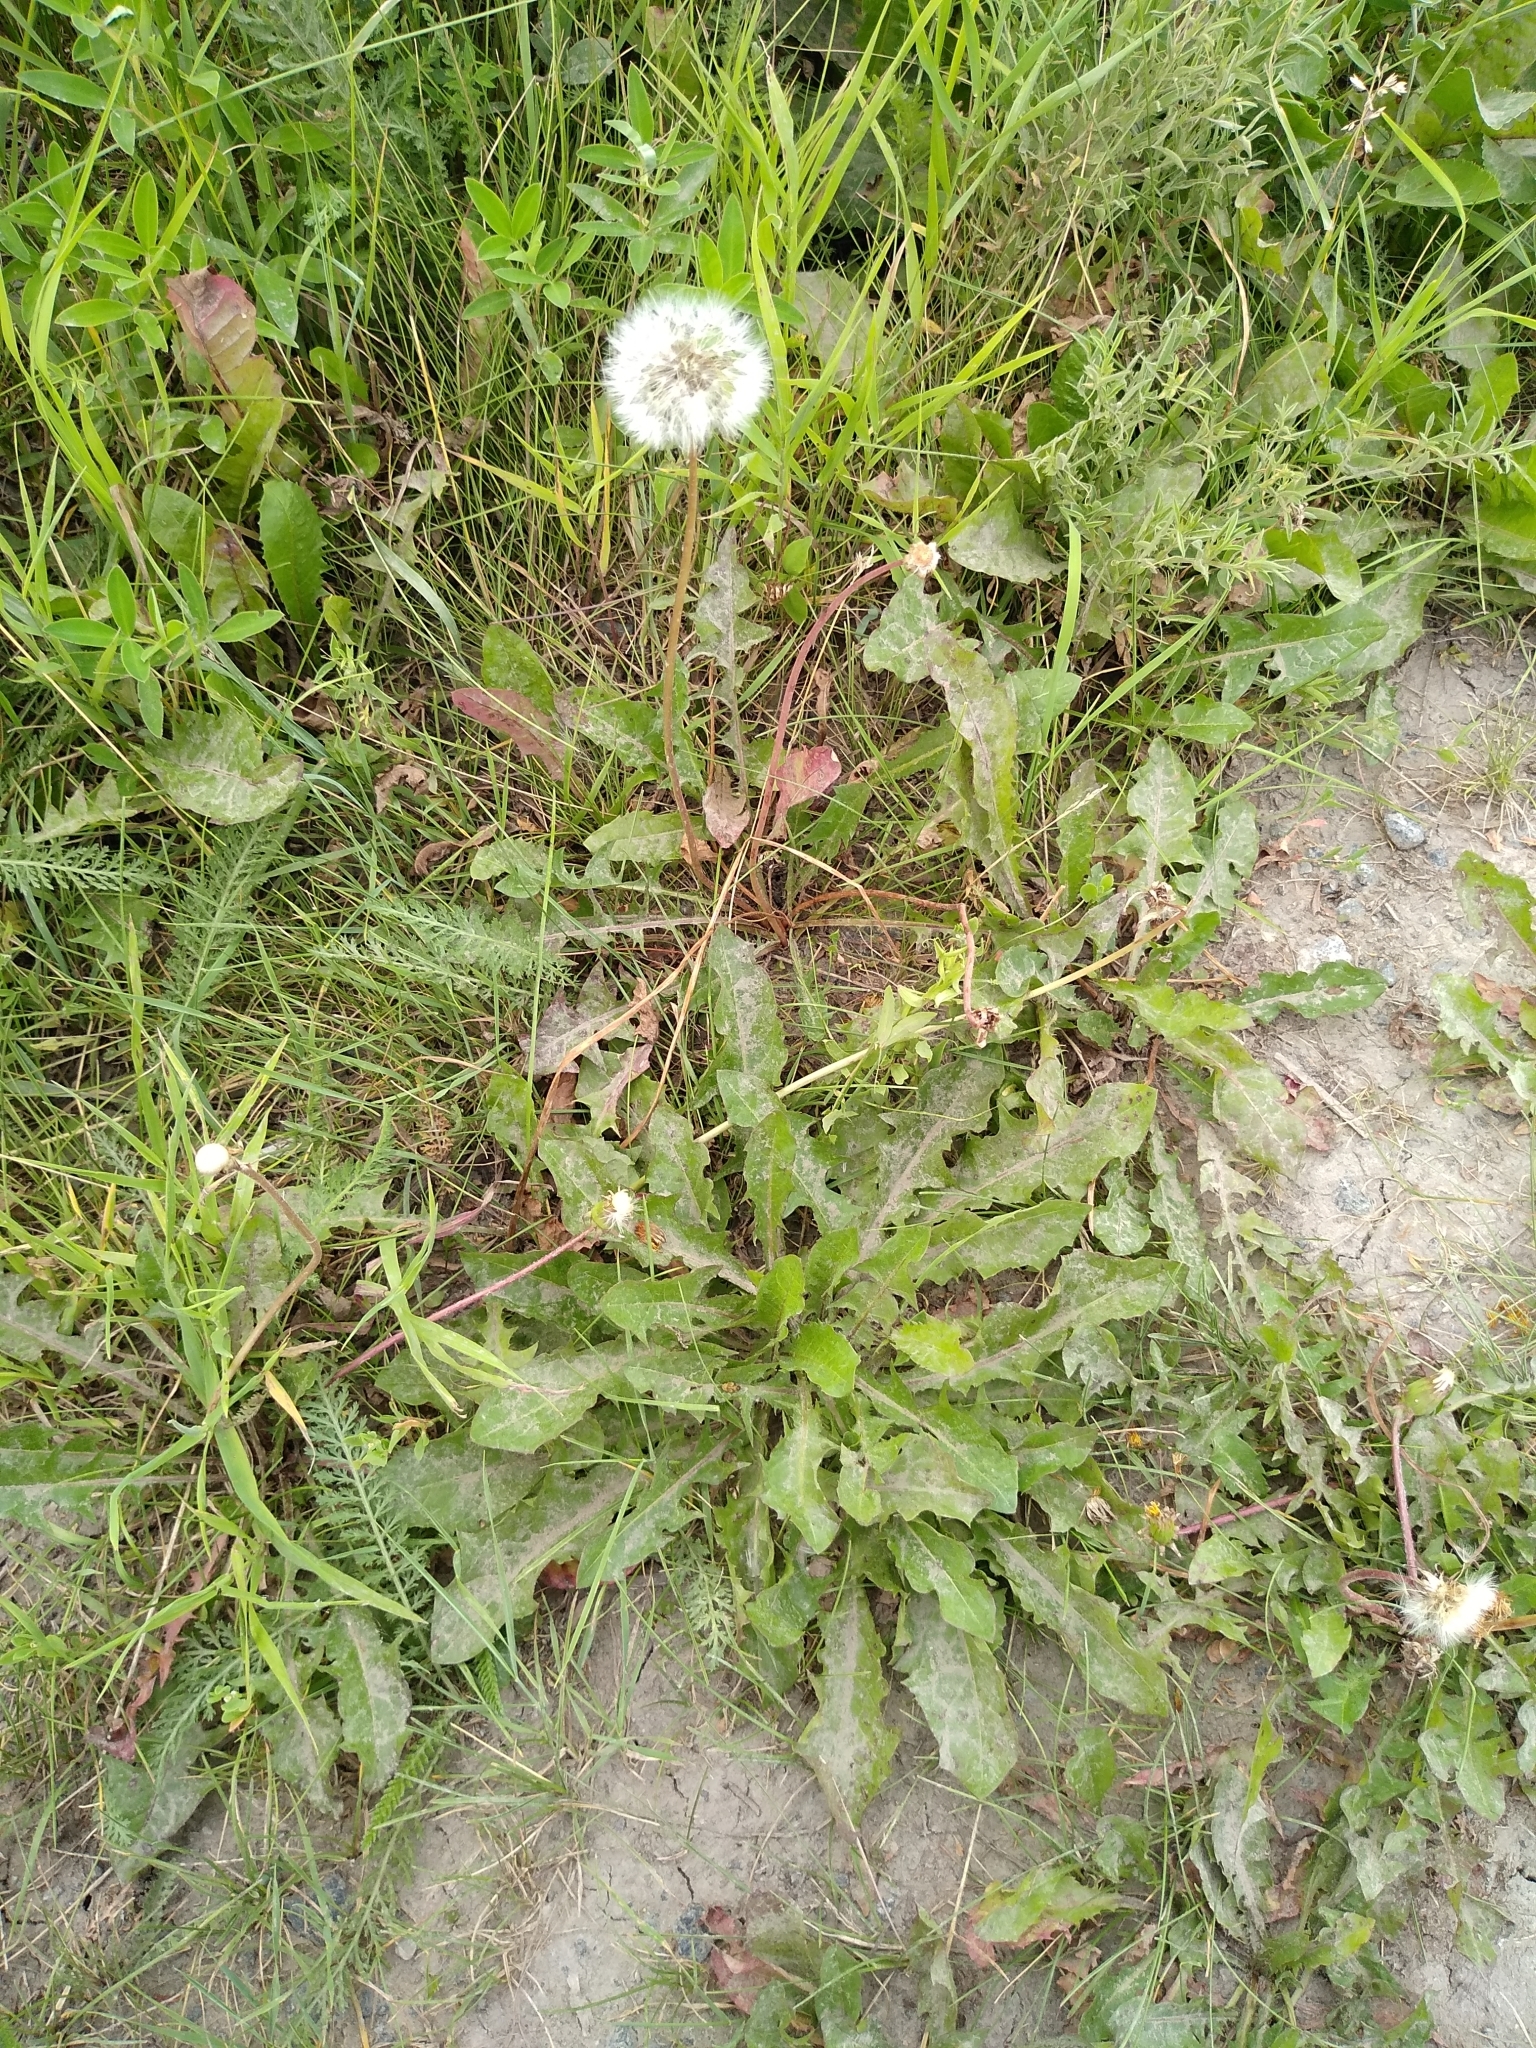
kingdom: Plantae
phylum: Tracheophyta
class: Magnoliopsida
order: Asterales
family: Asteraceae
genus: Taraxacum
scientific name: Taraxacum officinale
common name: Common dandelion
